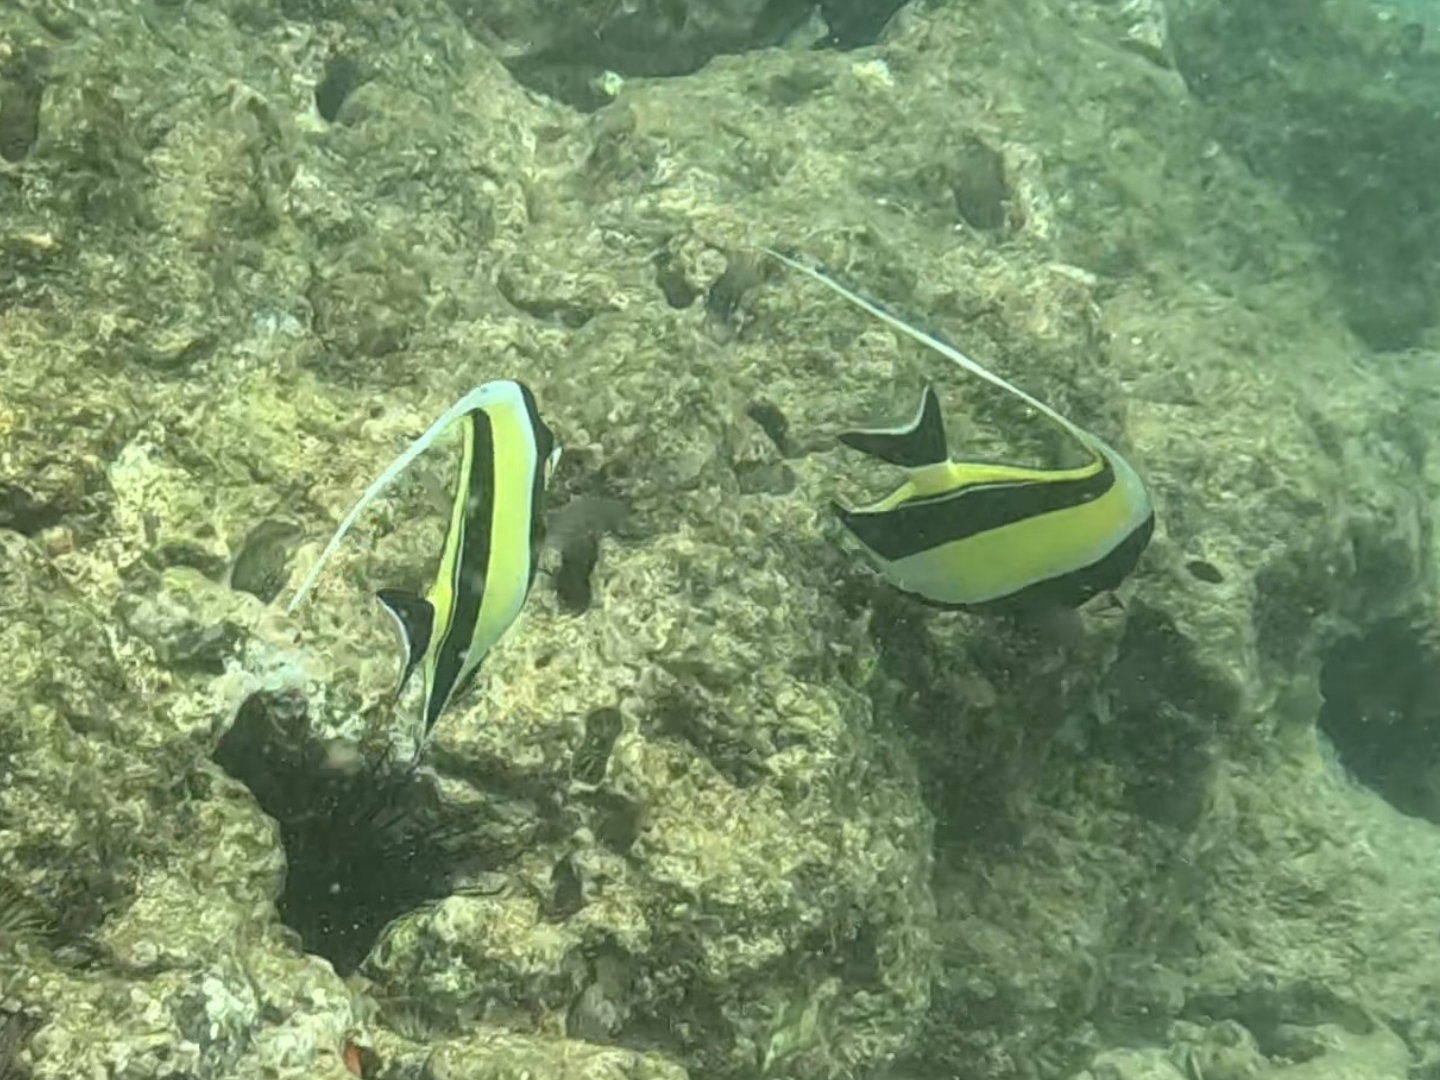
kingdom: Animalia
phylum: Chordata
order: Perciformes
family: Zanclidae
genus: Zanclus
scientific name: Zanclus cornutus
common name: Moorish idol
